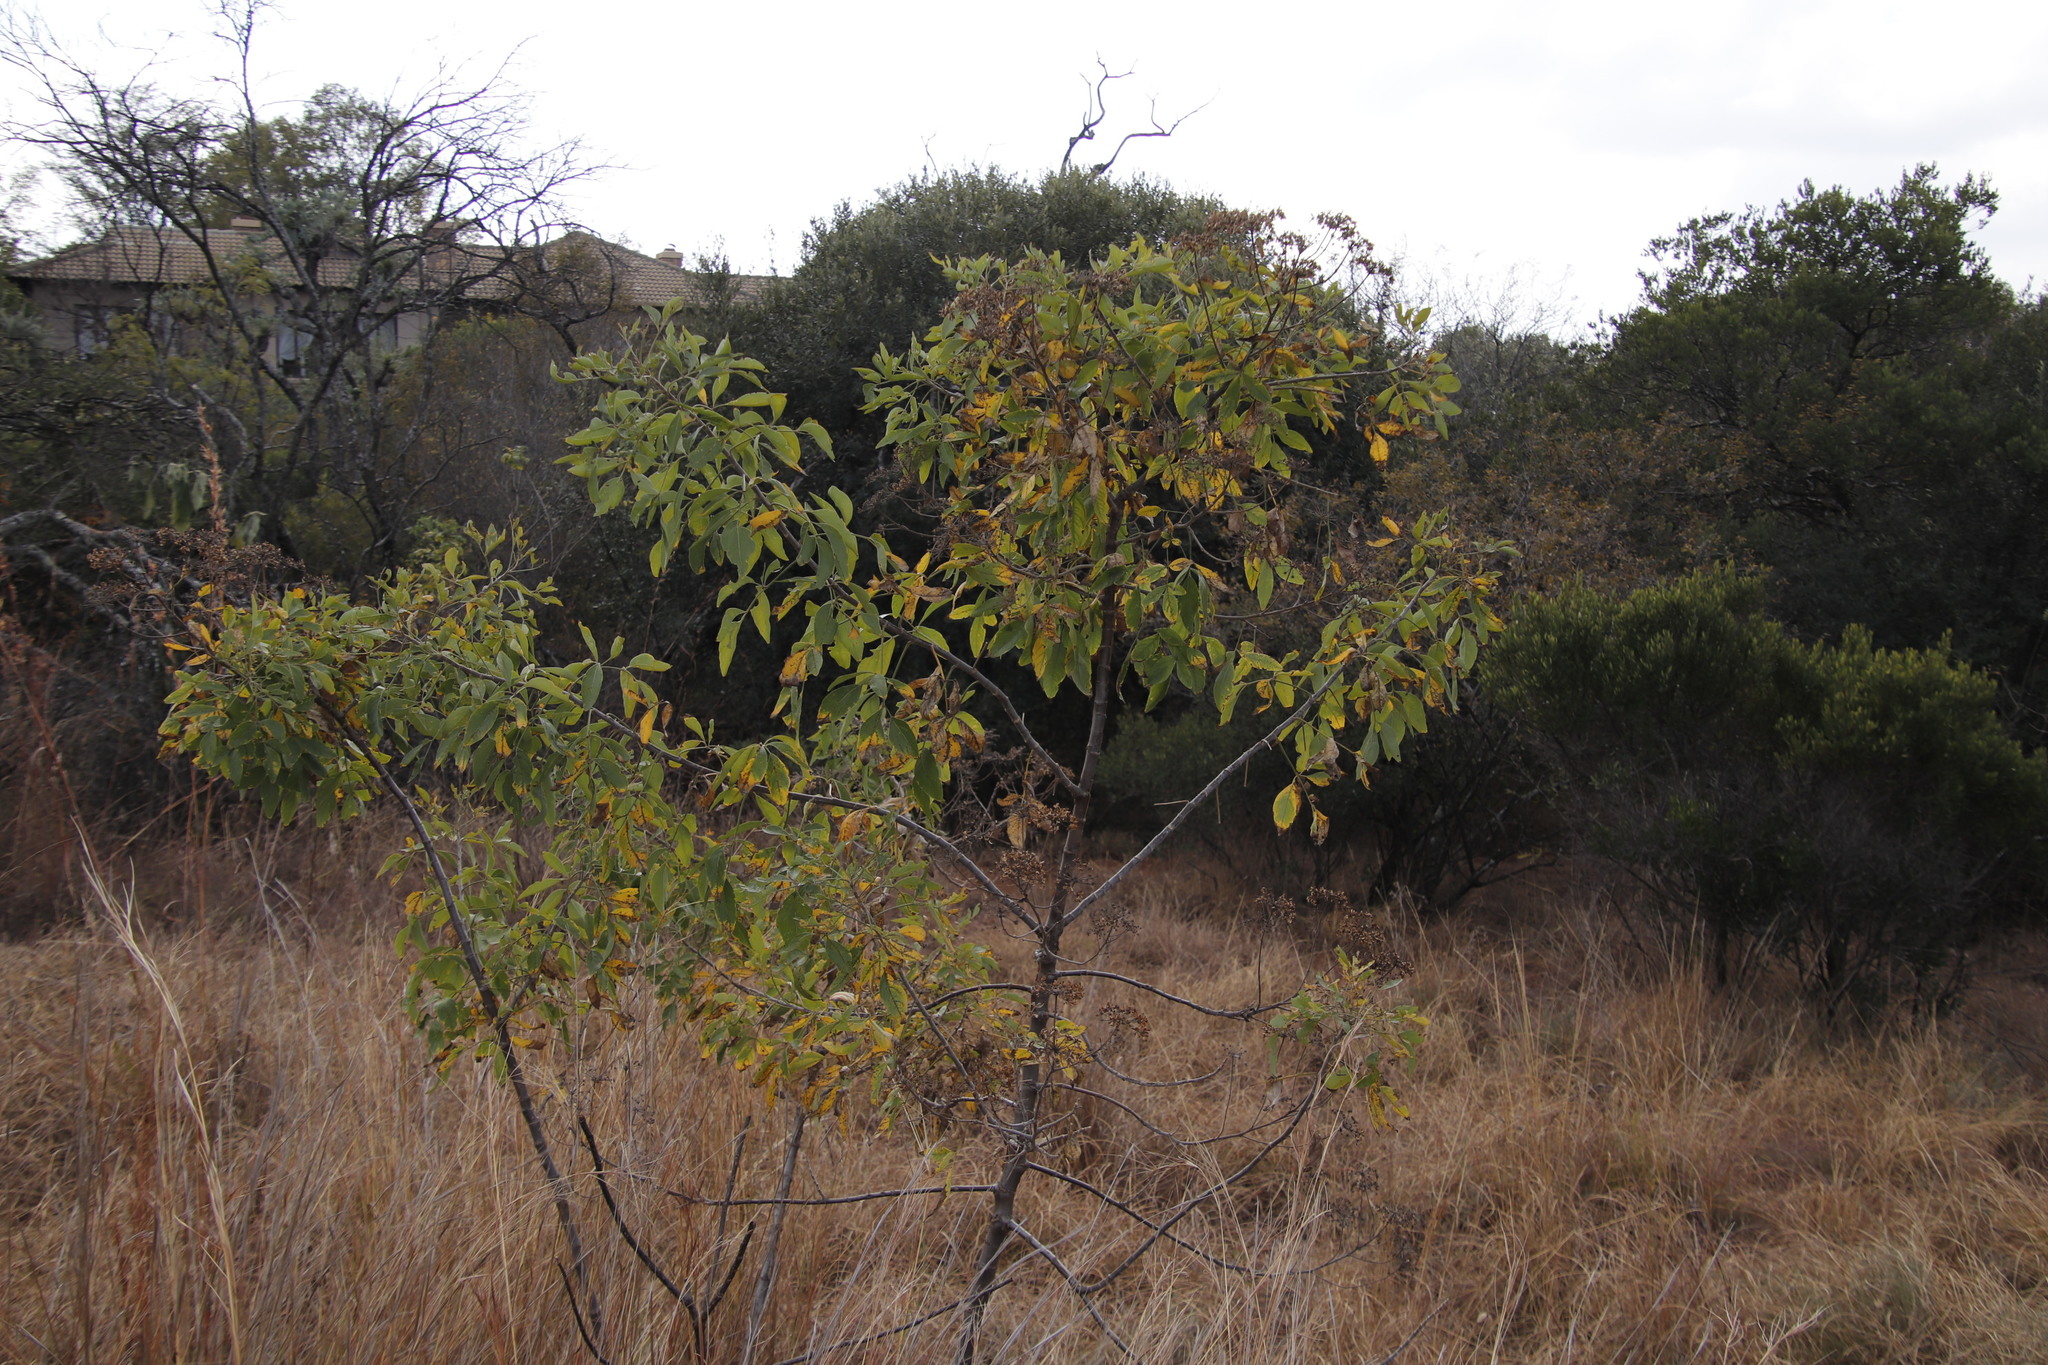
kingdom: Plantae
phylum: Tracheophyta
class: Magnoliopsida
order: Apiales
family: Apiaceae
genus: Heteromorpha
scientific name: Heteromorpha arborescens
